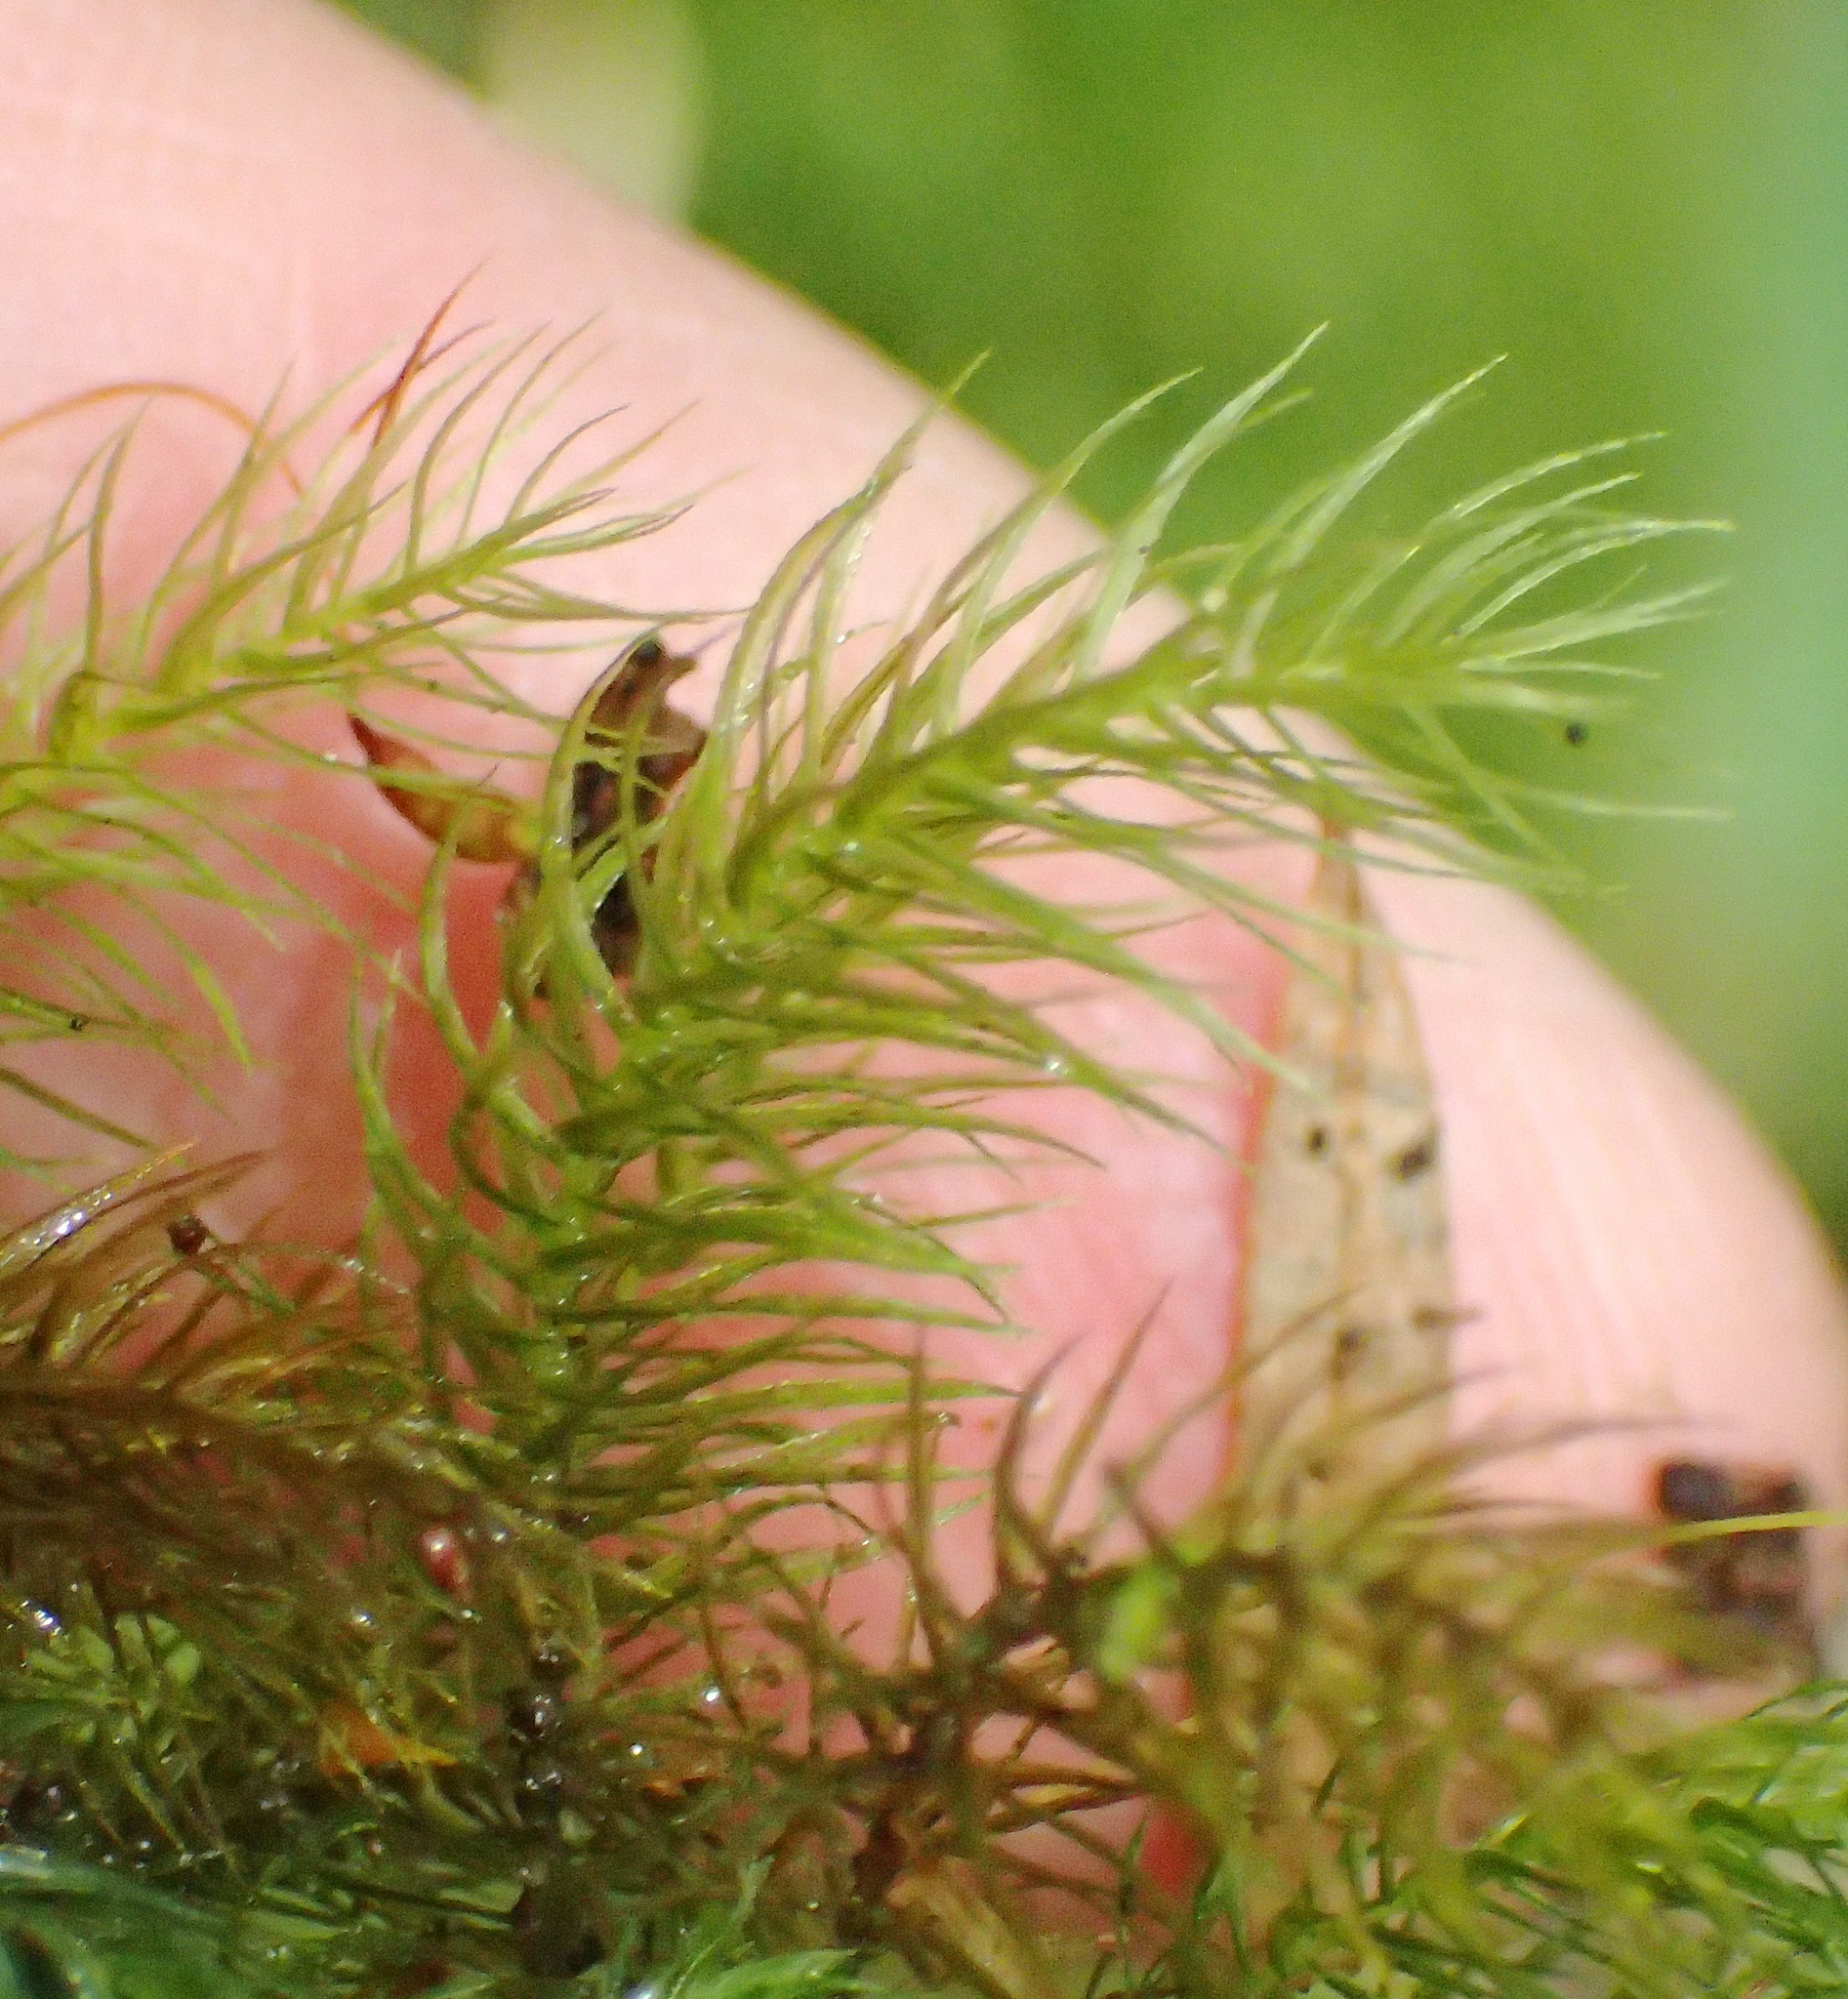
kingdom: Plantae
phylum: Bryophyta
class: Bryopsida
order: Rhizogoniales
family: Calomniaceae
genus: Pyrrhobryum
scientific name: Pyrrhobryum spiniforme
